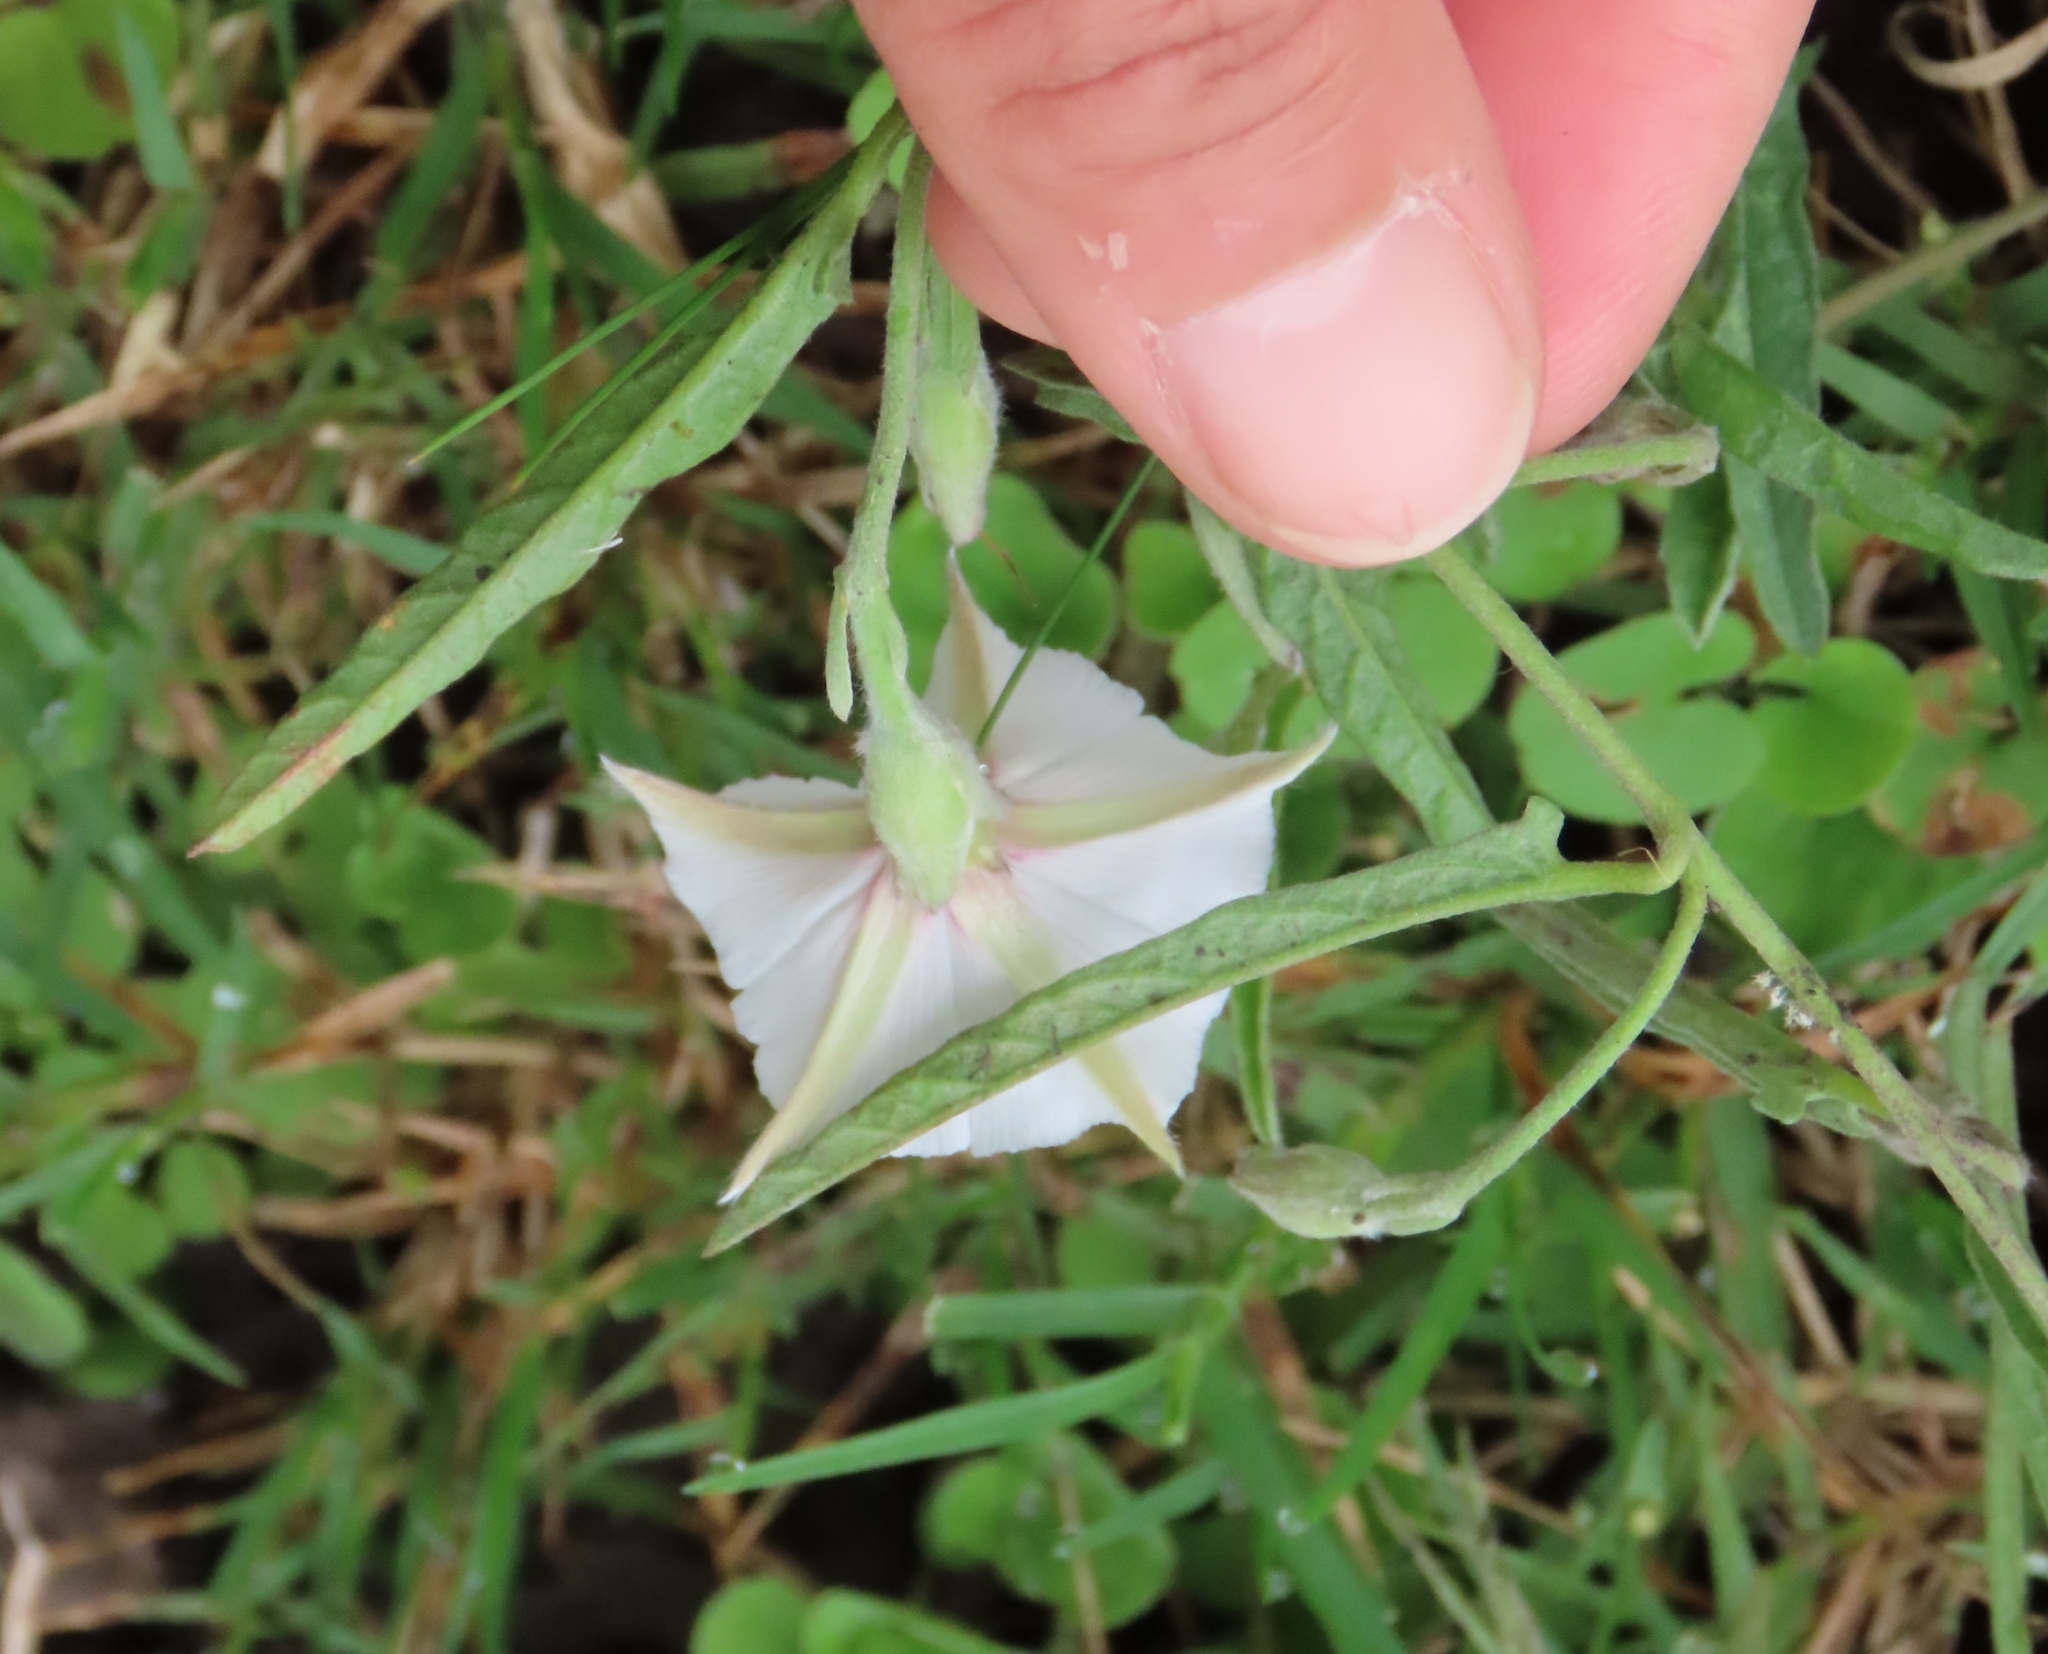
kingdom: Plantae
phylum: Tracheophyta
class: Magnoliopsida
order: Solanales
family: Convolvulaceae
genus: Convolvulus
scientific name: Convolvulus bonariensis
